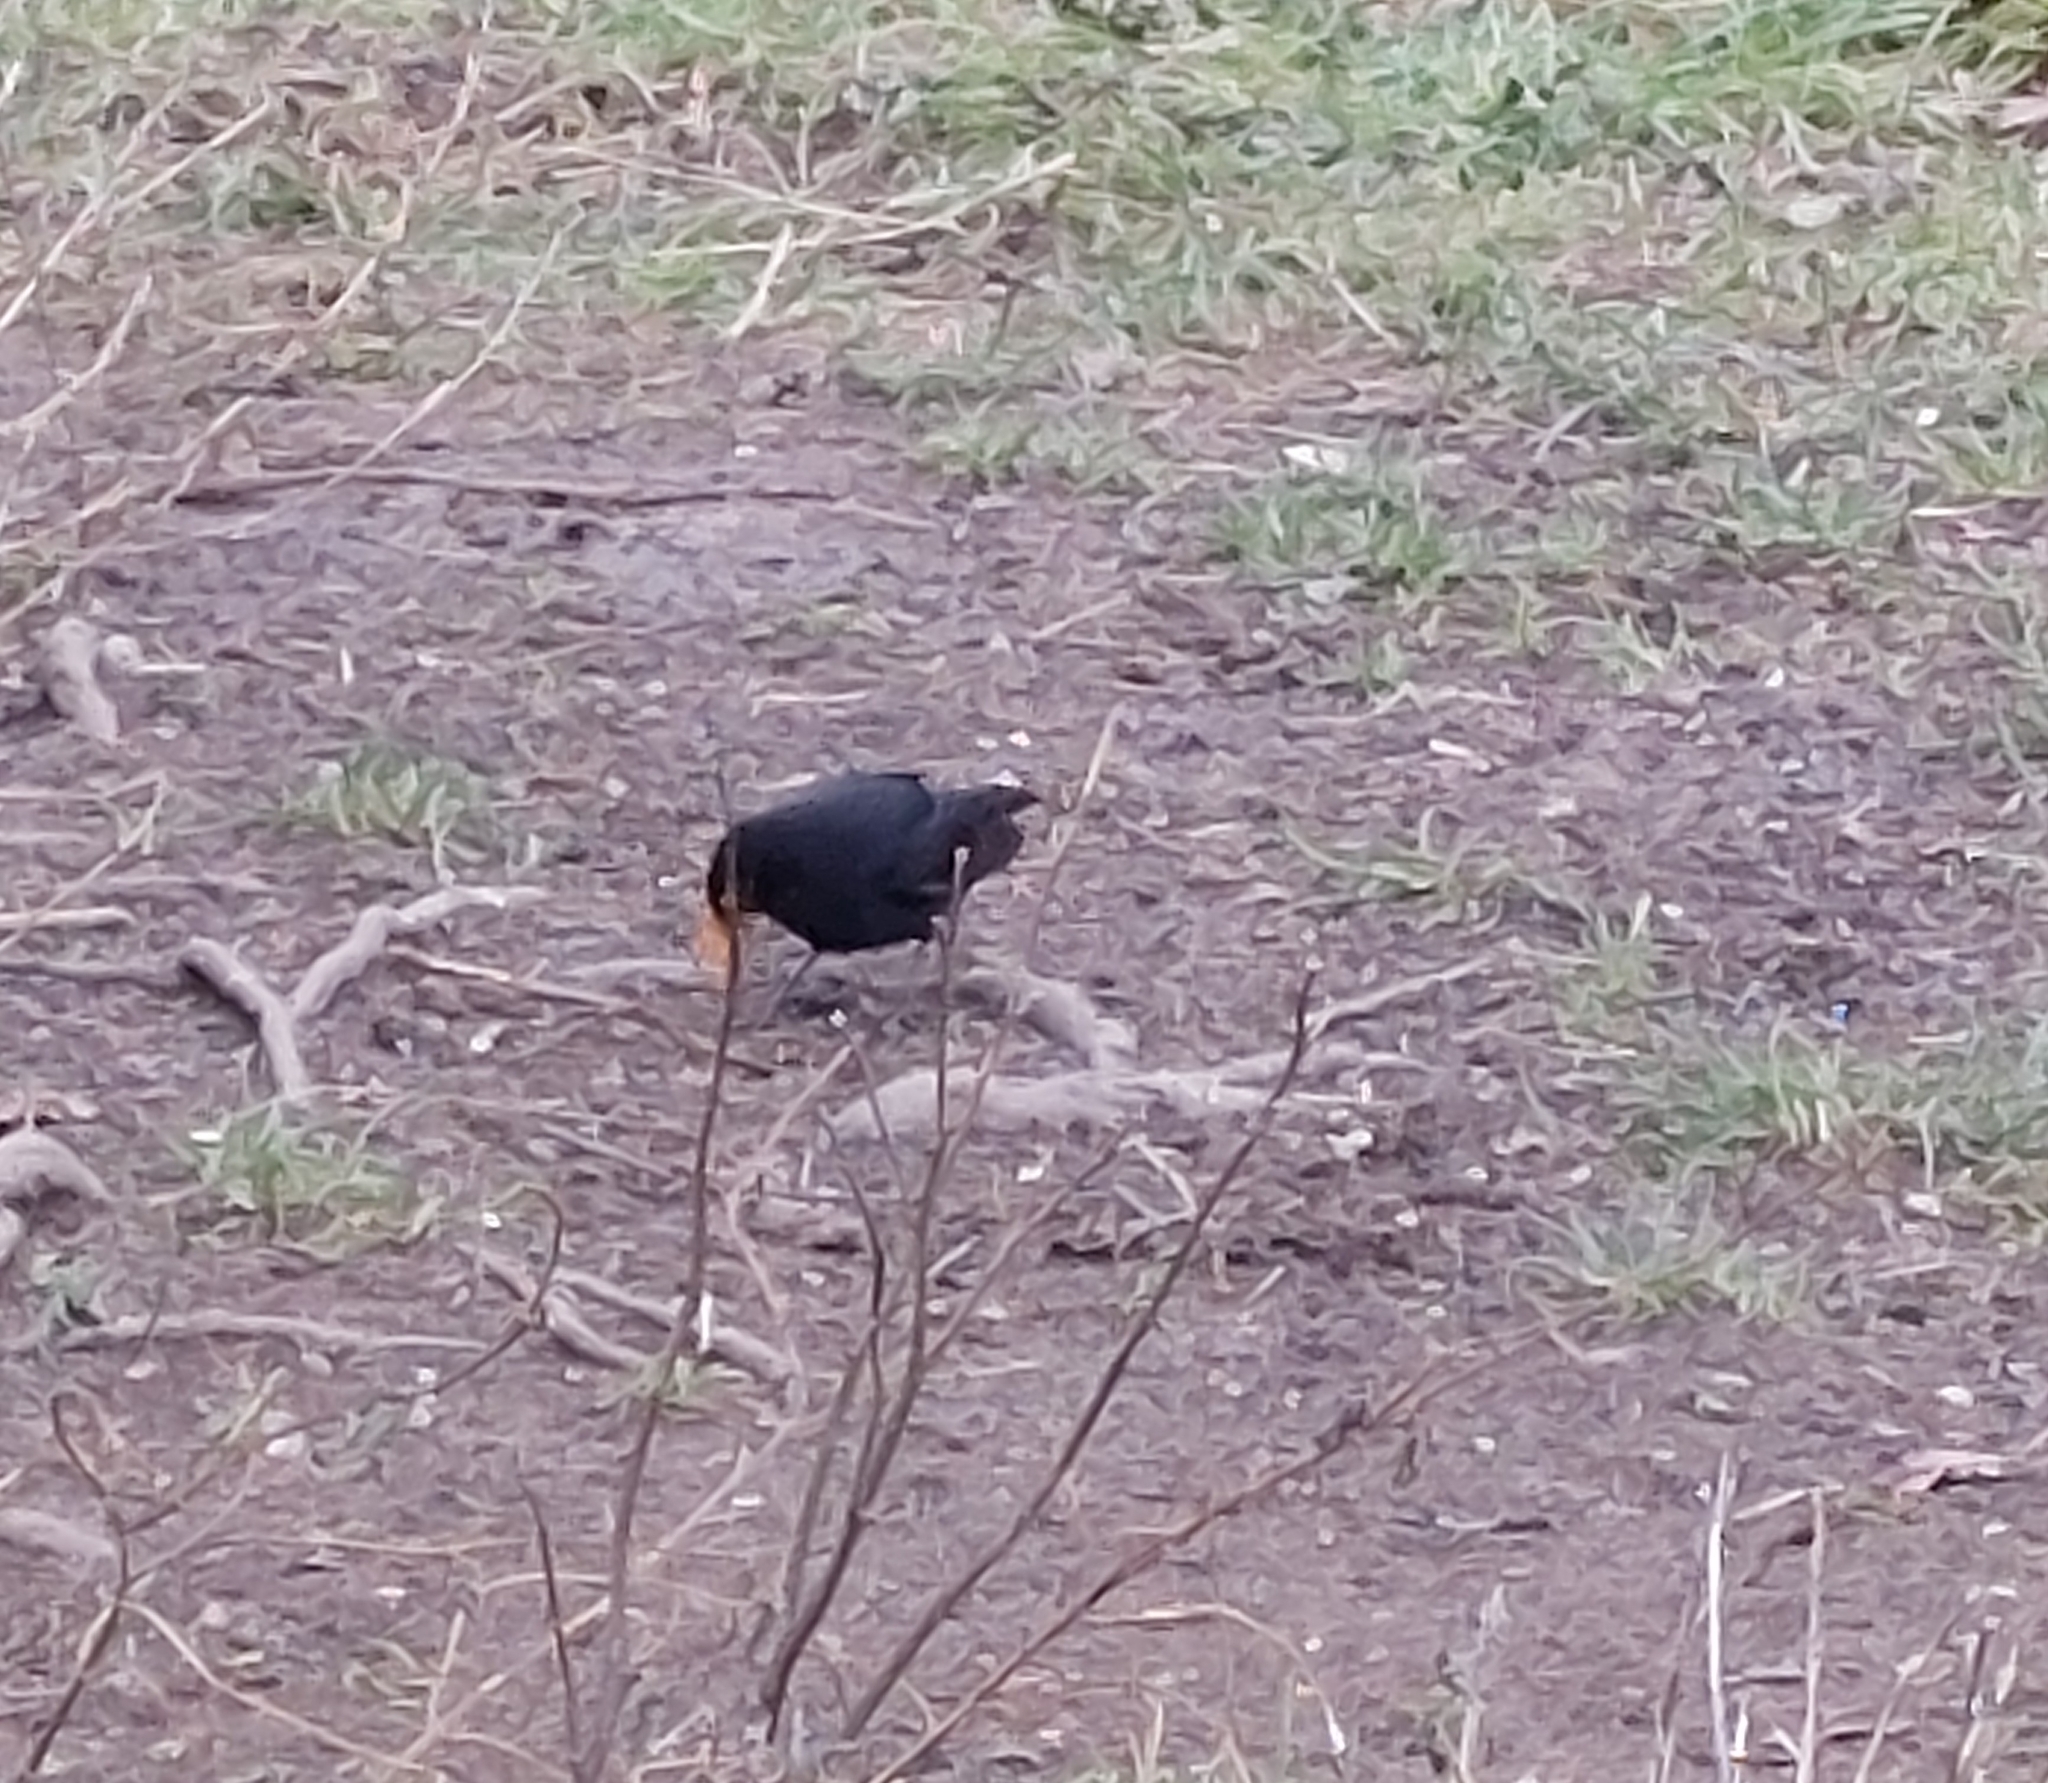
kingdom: Animalia
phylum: Chordata
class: Aves
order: Passeriformes
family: Turdidae
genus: Turdus
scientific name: Turdus merula
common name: Common blackbird
